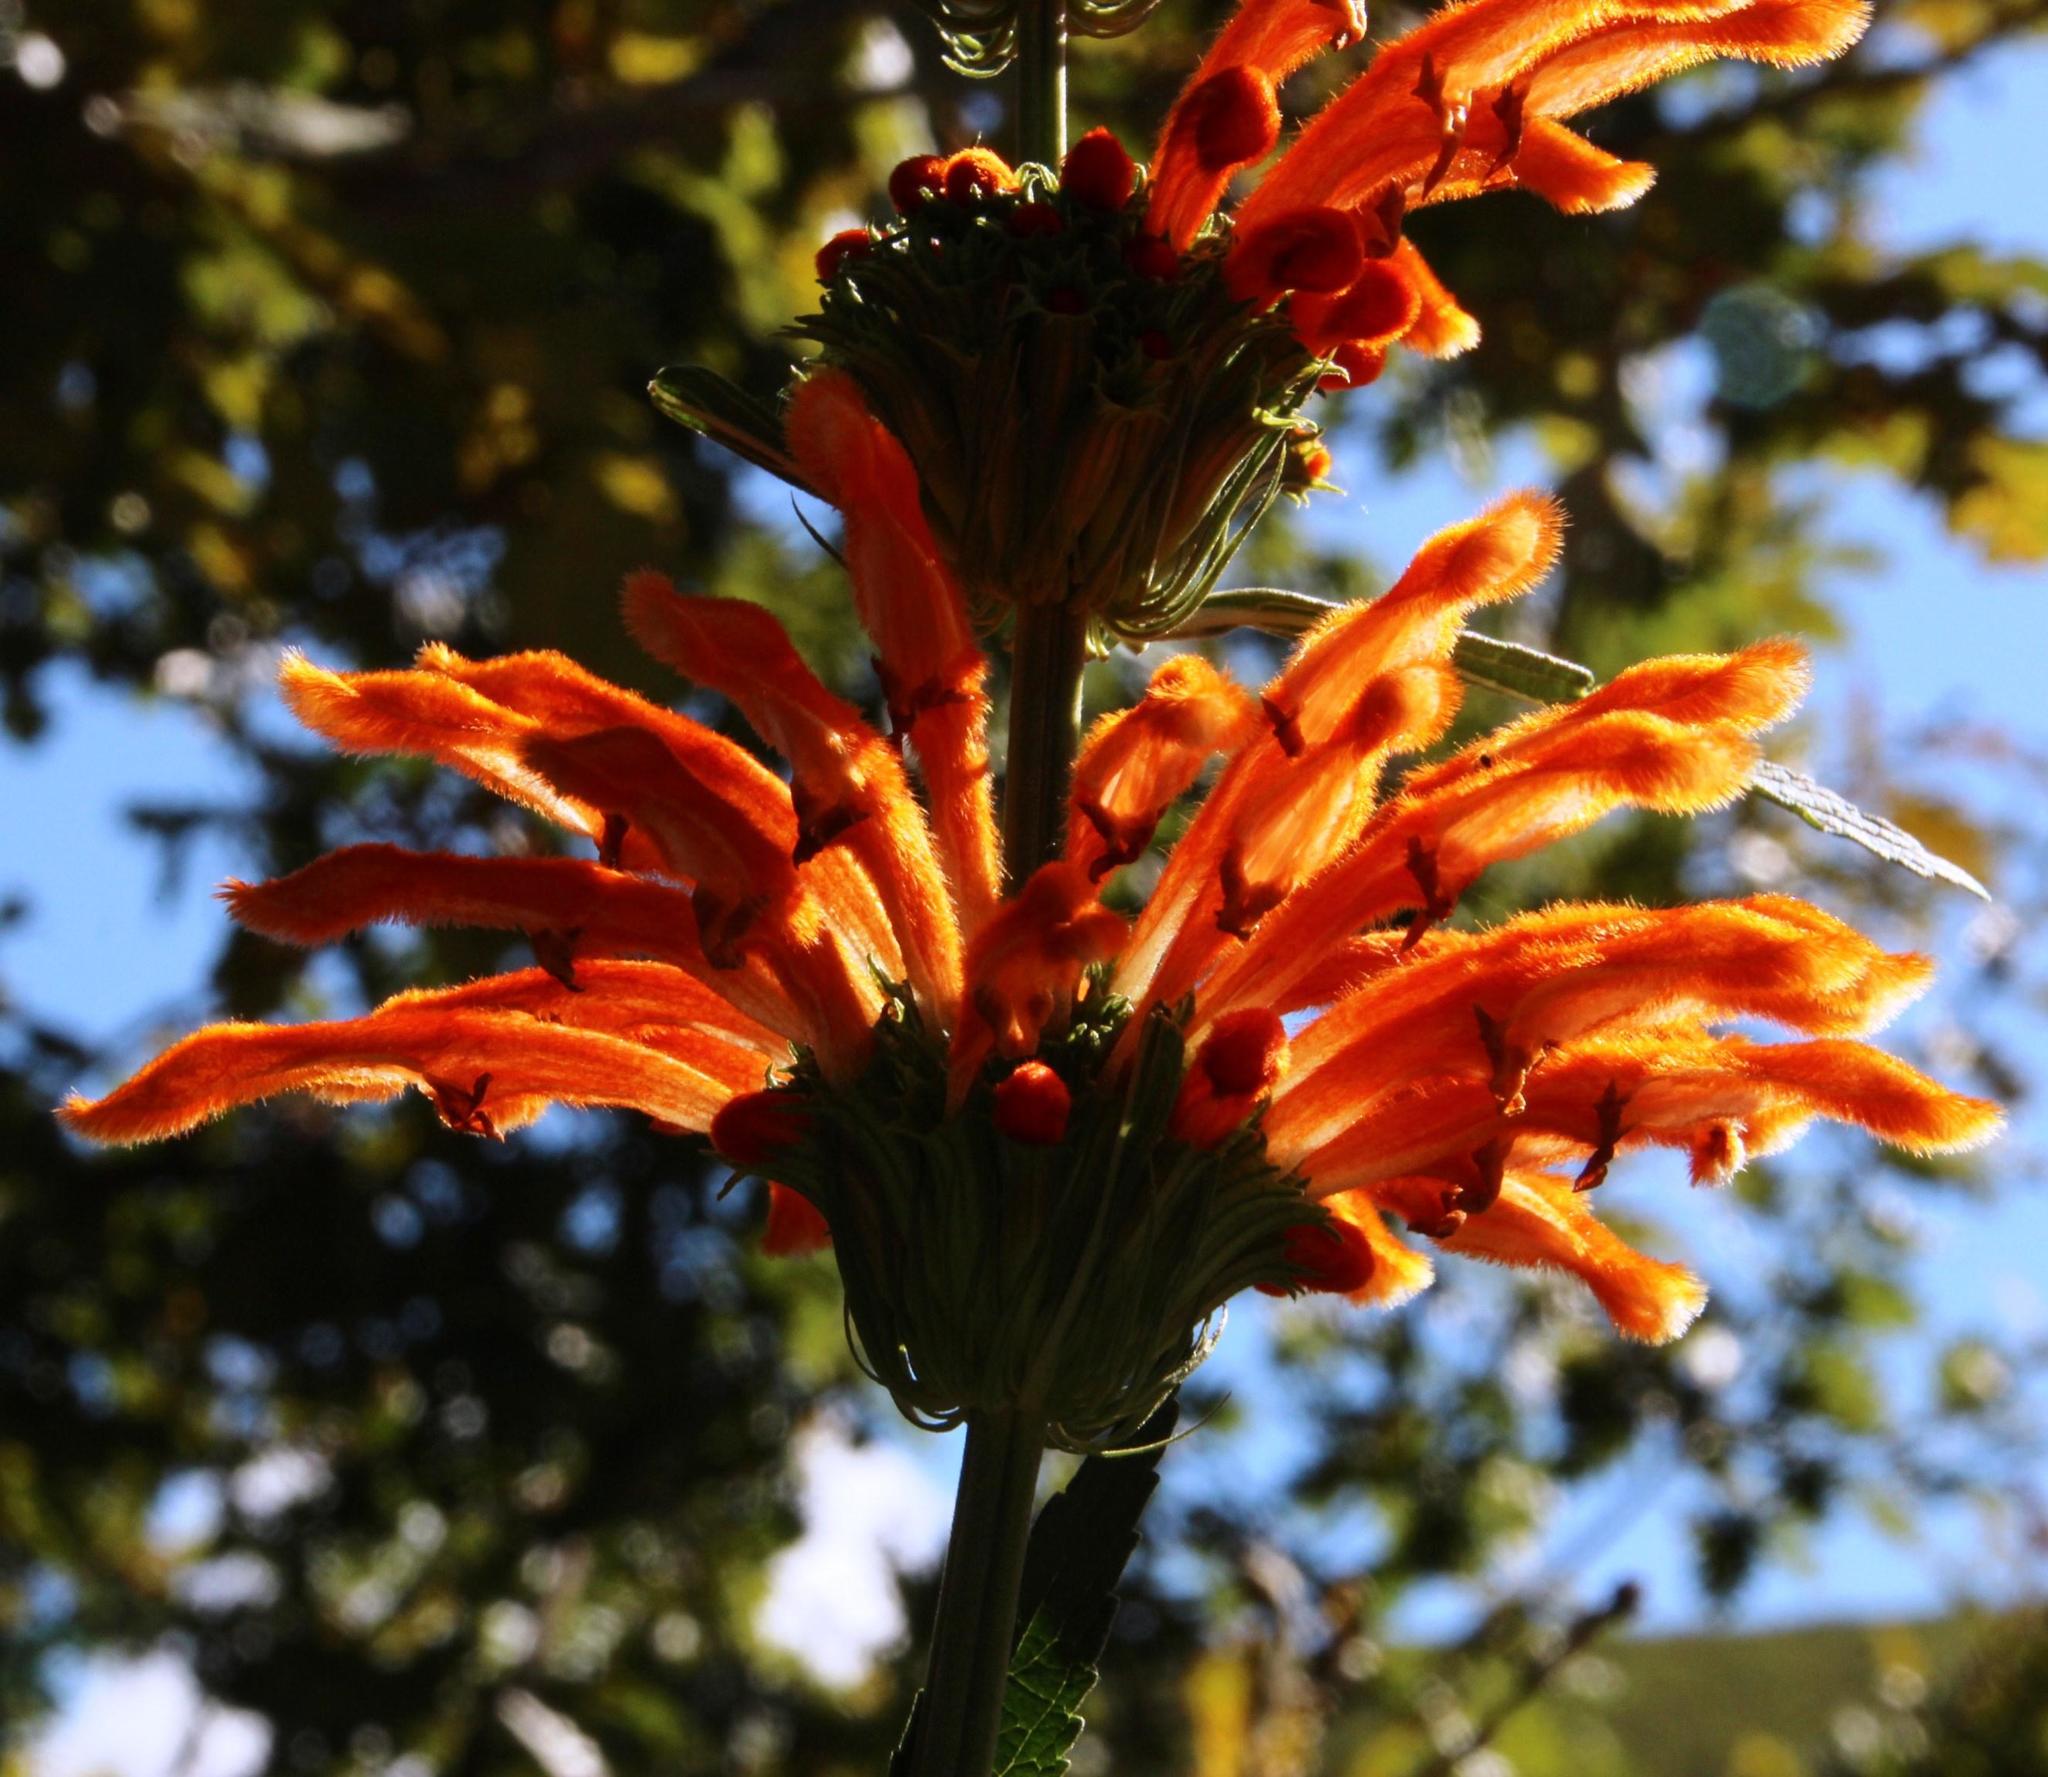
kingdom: Plantae
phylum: Tracheophyta
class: Magnoliopsida
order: Lamiales
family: Lamiaceae
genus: Leonotis
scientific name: Leonotis leonurus
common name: Lion's ear
